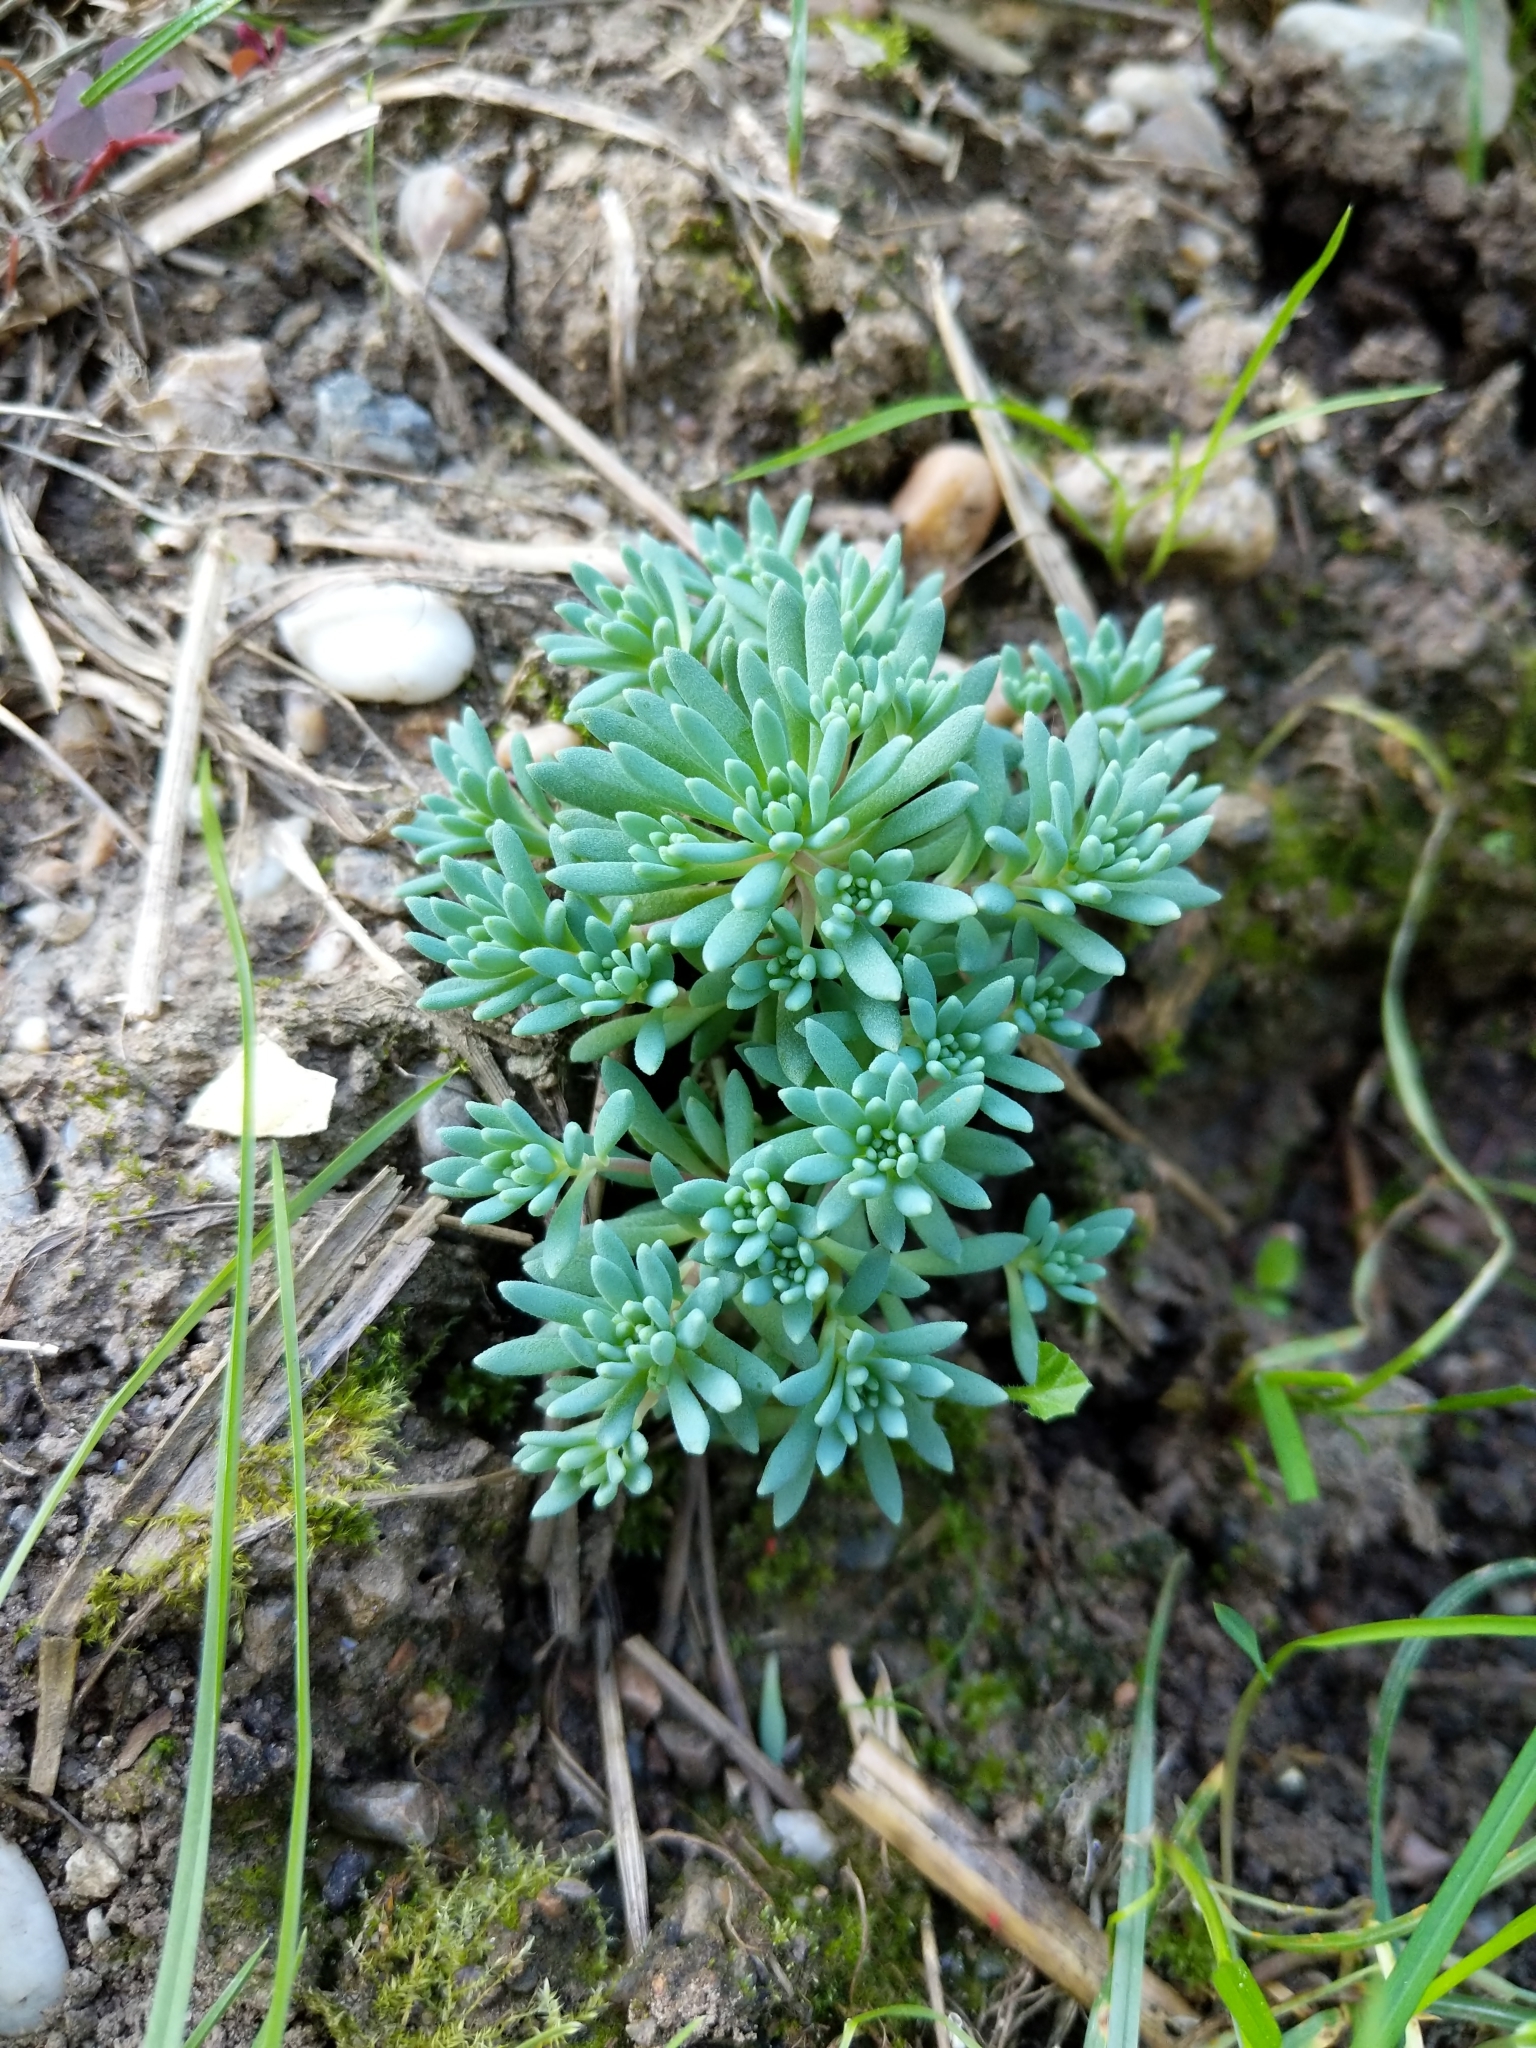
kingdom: Plantae
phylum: Tracheophyta
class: Magnoliopsida
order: Saxifragales
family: Crassulaceae
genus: Sedum
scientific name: Sedum hispanicum
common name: Spanish stonecrop
